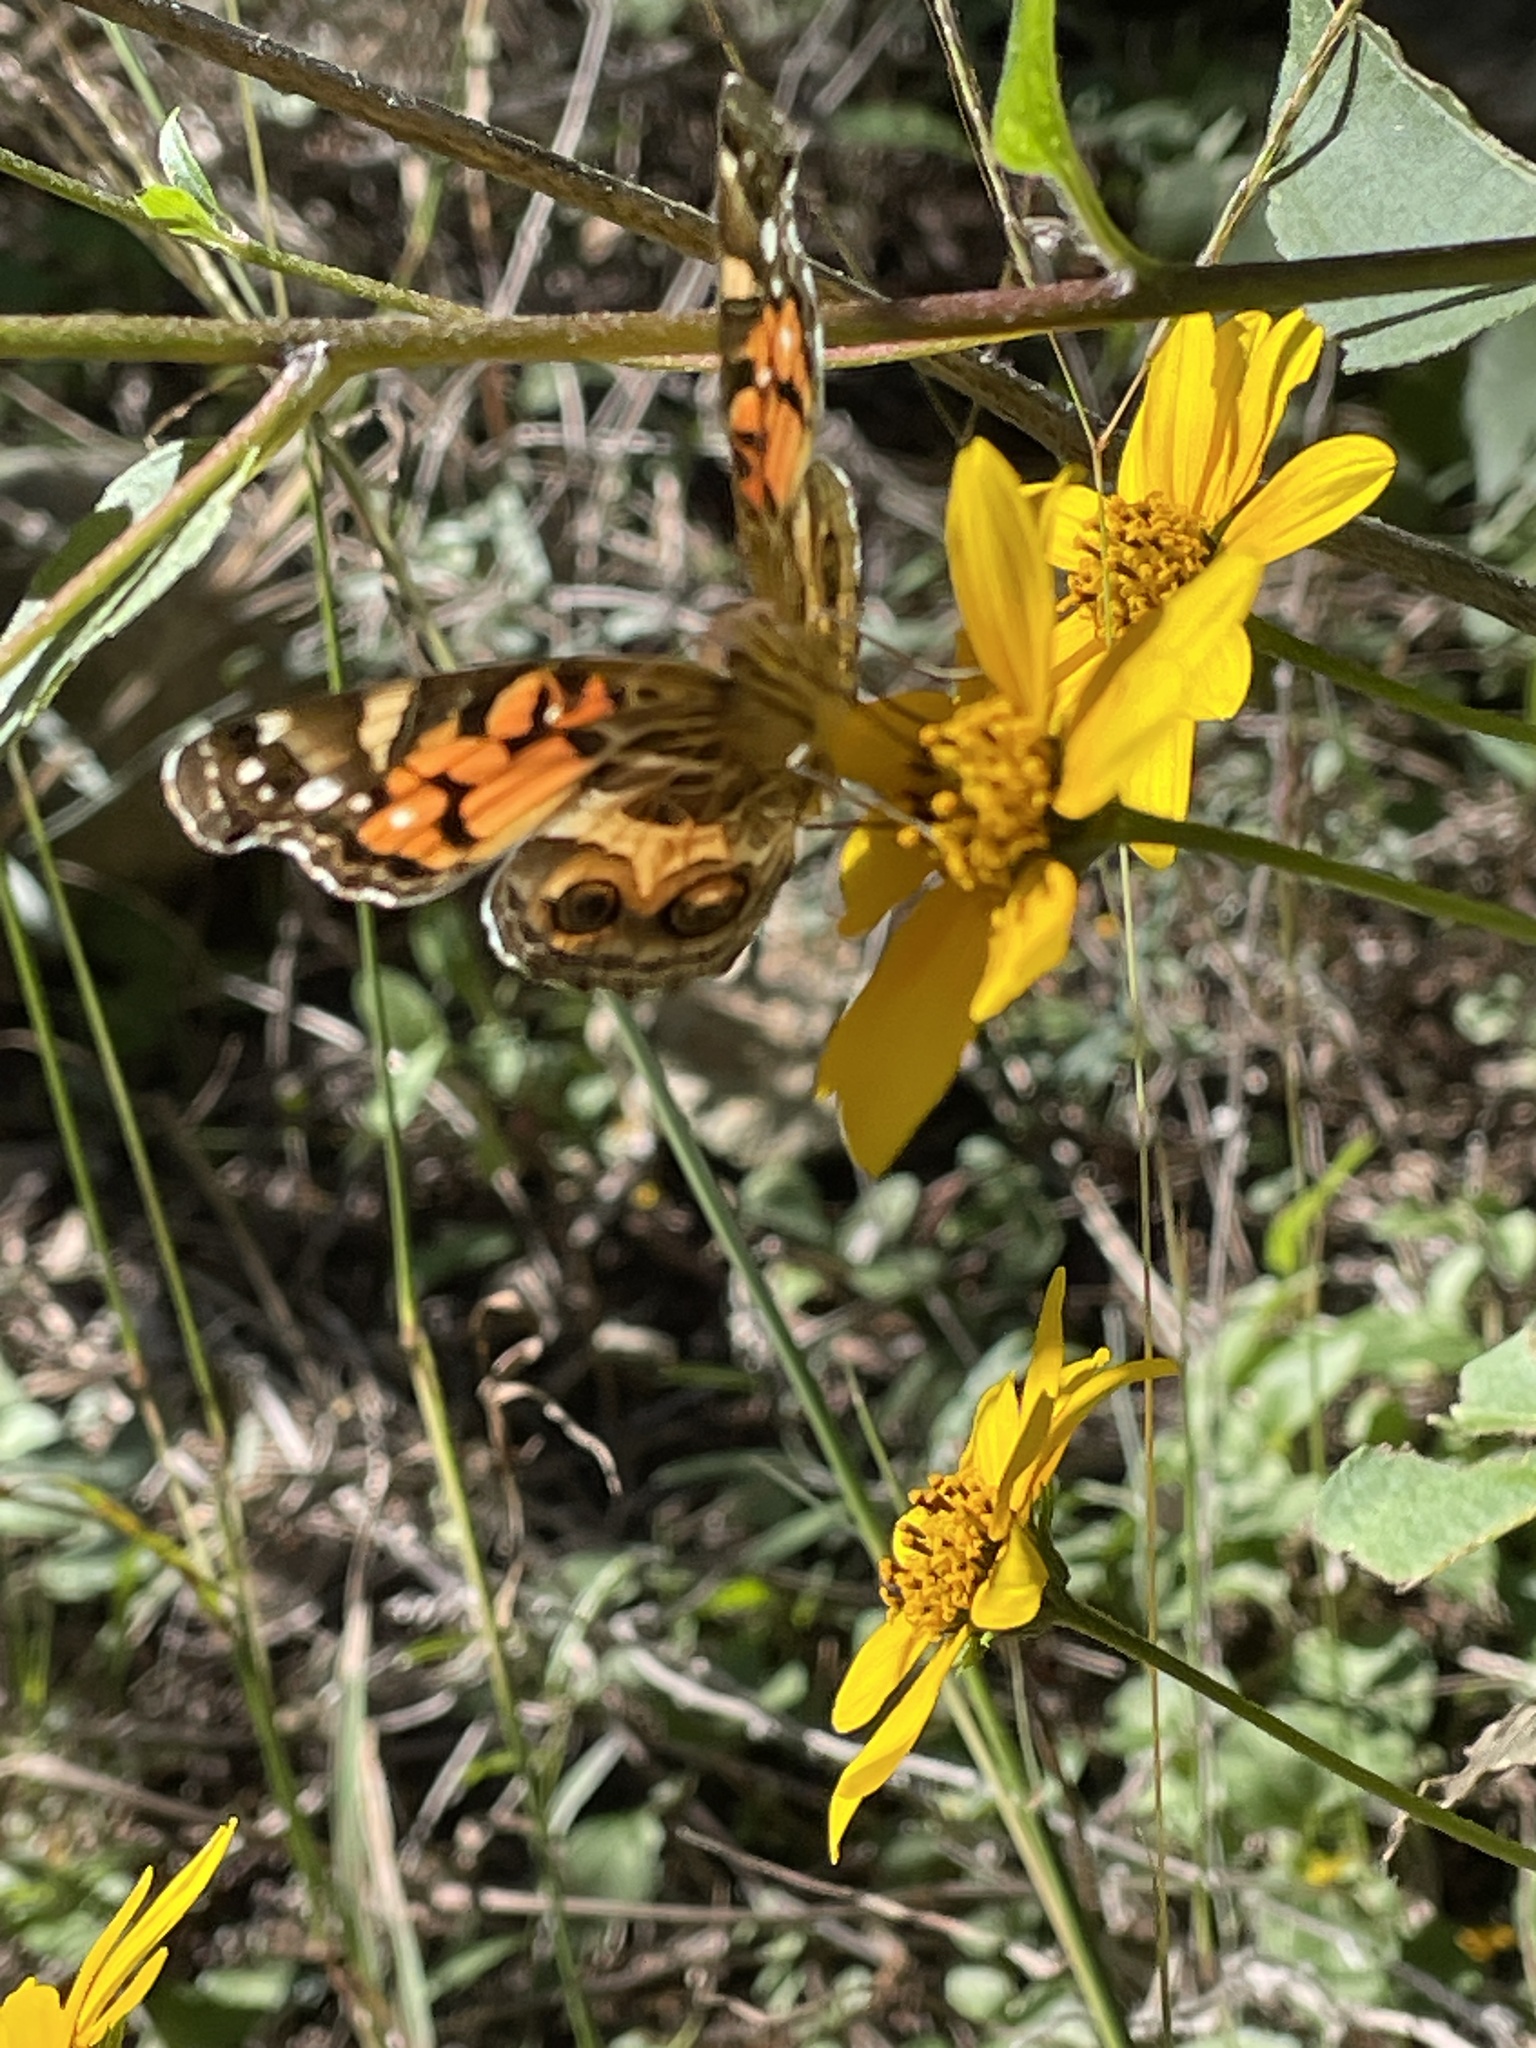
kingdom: Animalia
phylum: Arthropoda
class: Insecta
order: Lepidoptera
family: Nymphalidae
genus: Vanessa
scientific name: Vanessa virginiensis
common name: American lady
